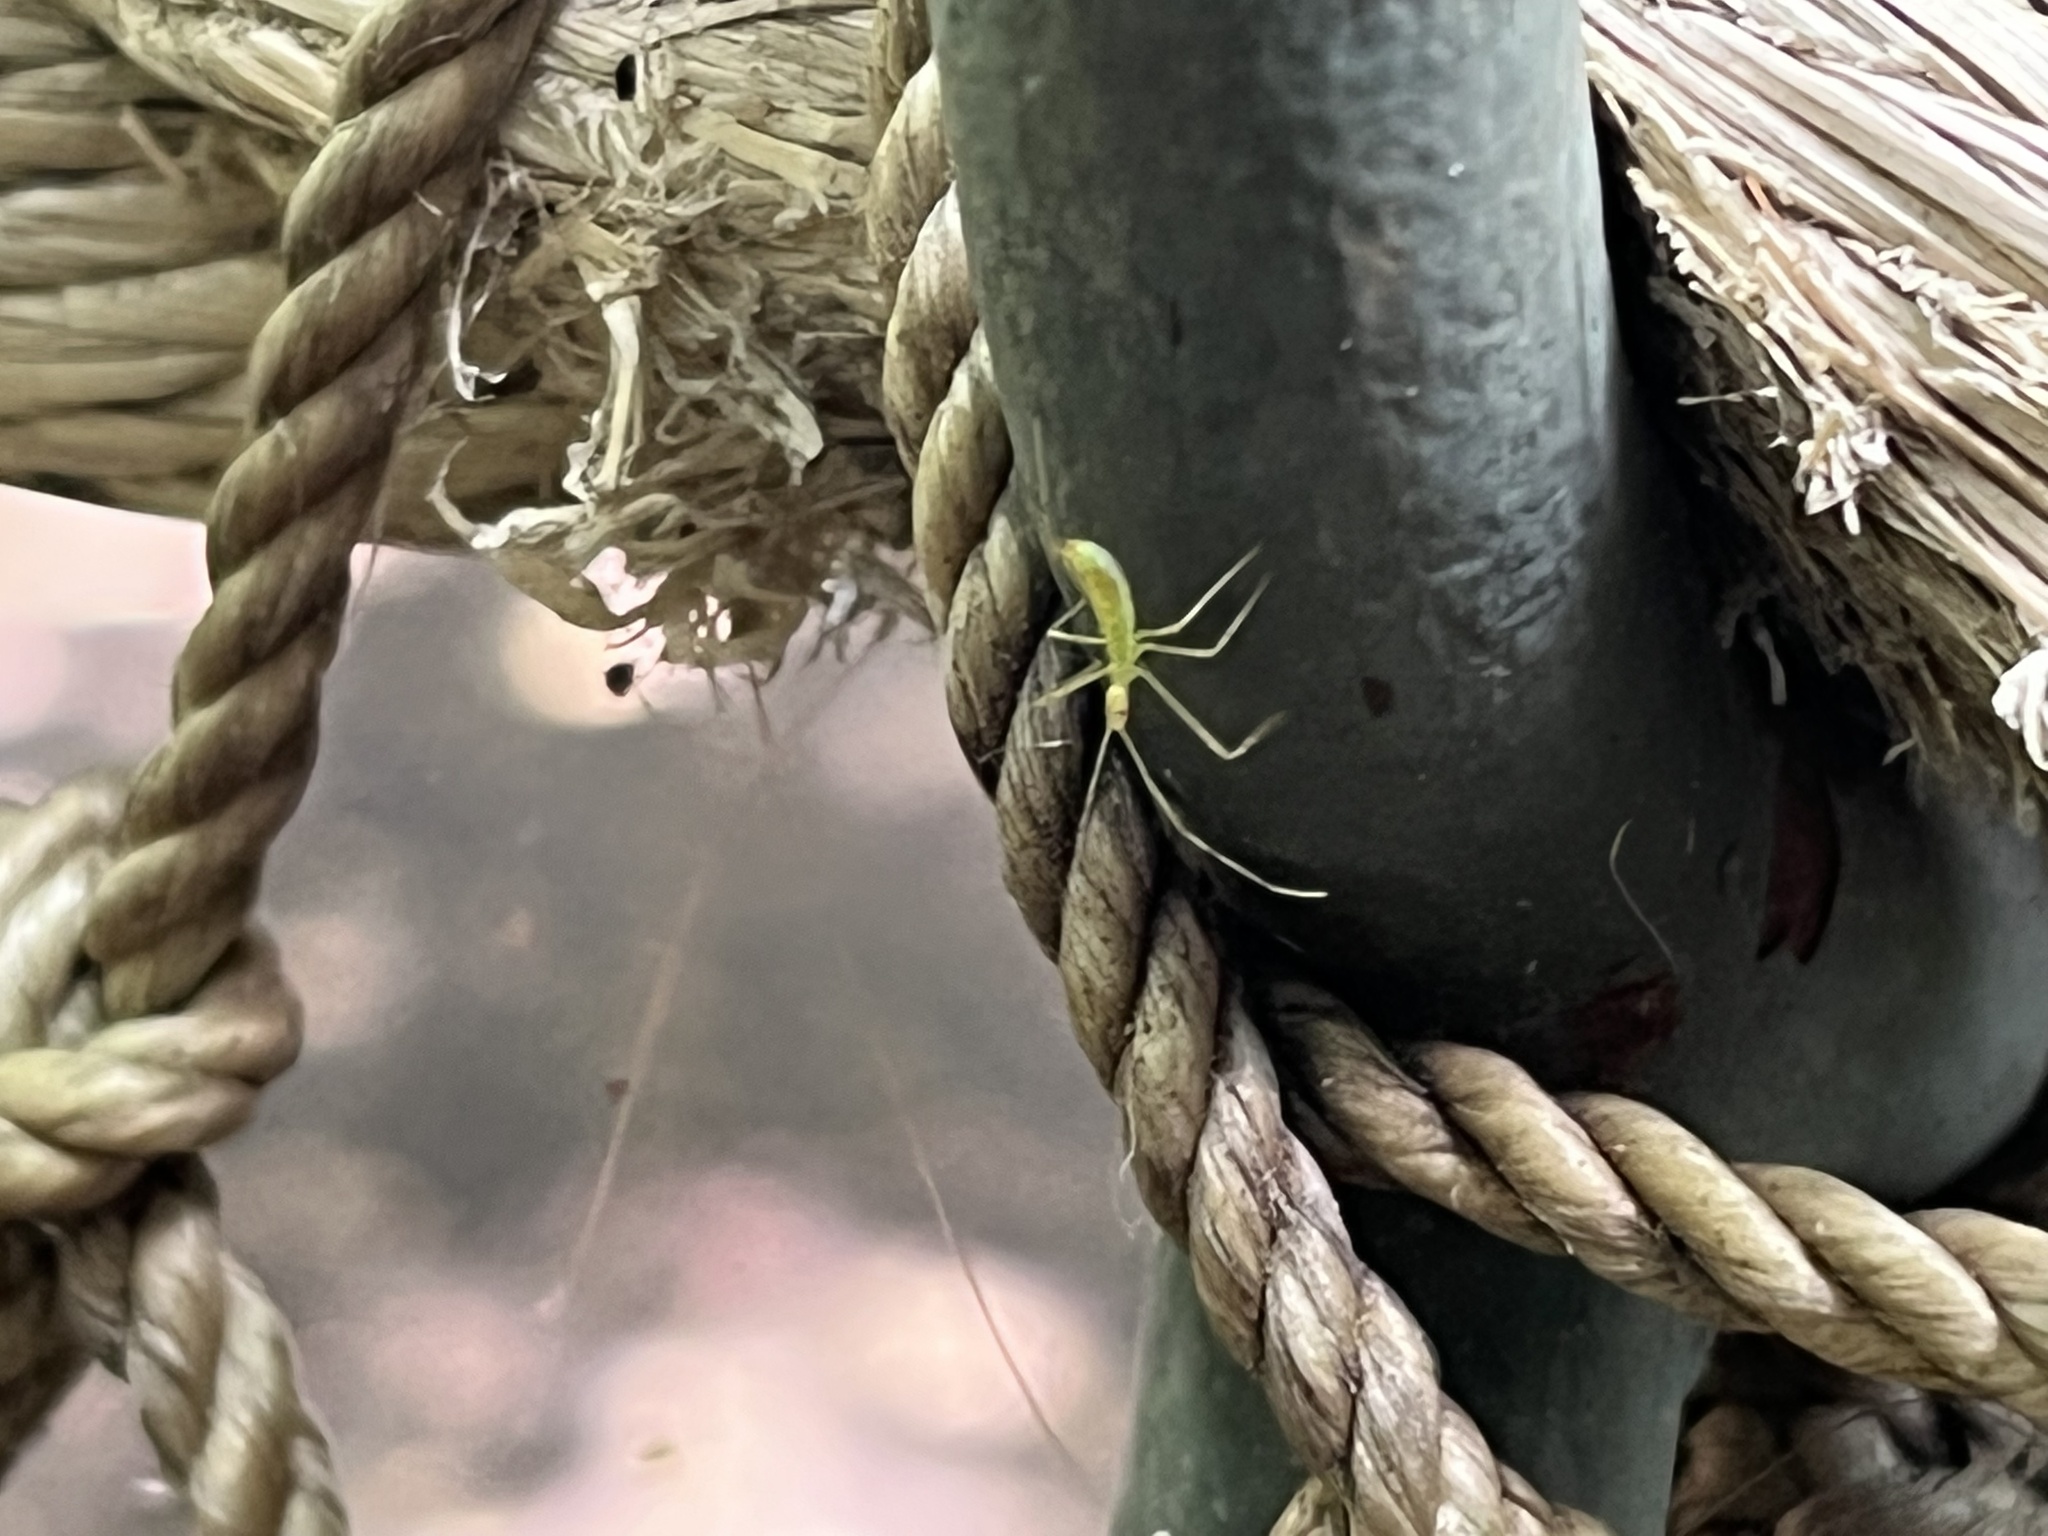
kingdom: Animalia
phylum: Arthropoda
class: Insecta
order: Hemiptera
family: Reduviidae
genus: Zelus
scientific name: Zelus luridus
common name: Pale green assassin bug
